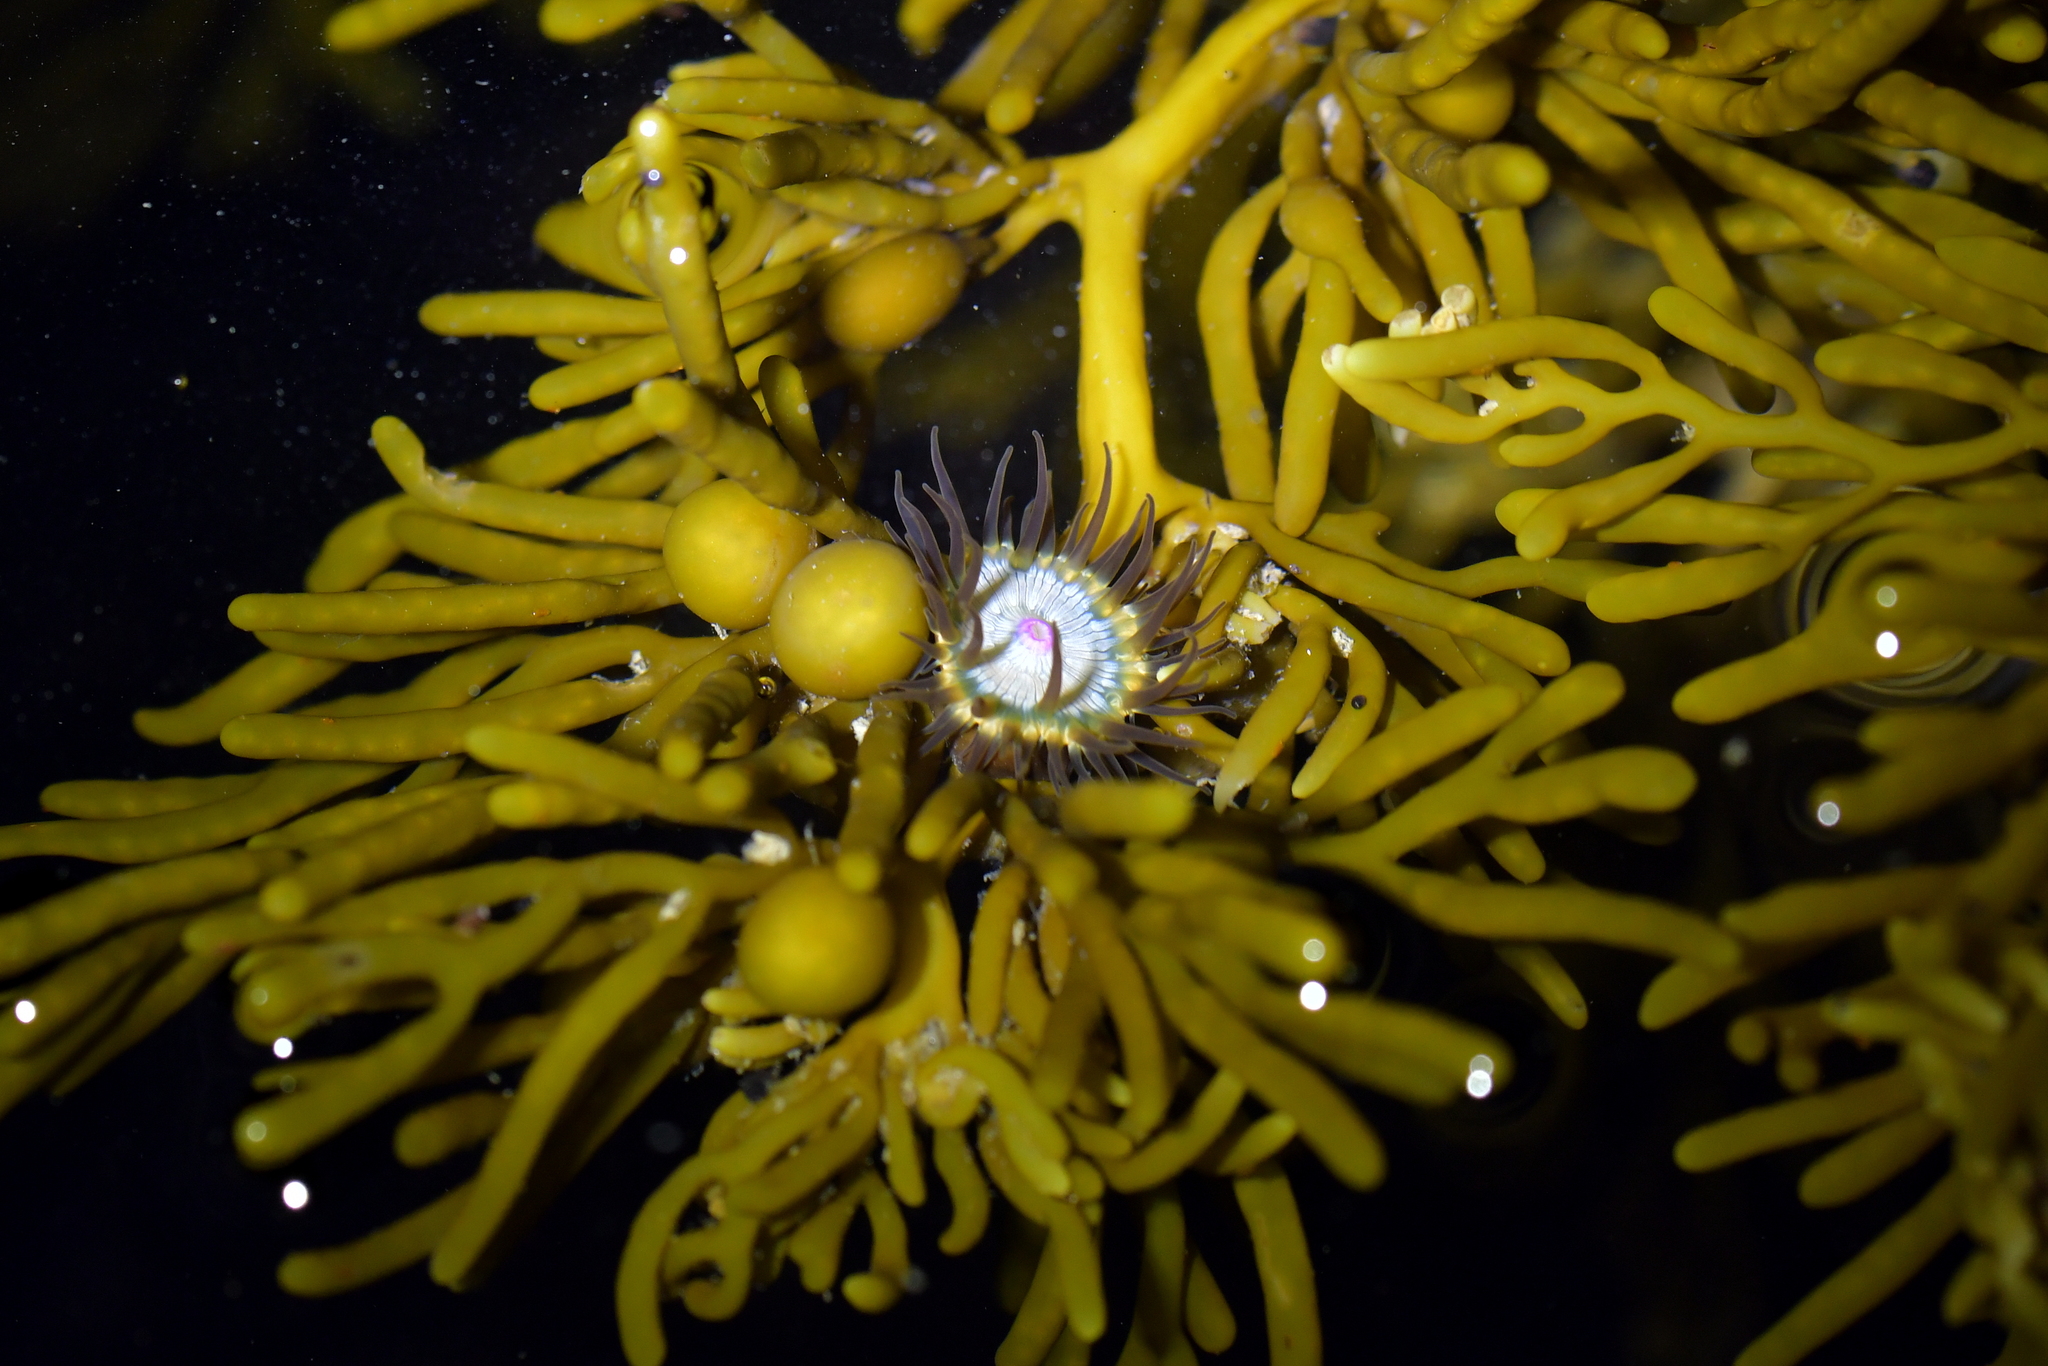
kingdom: Animalia
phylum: Cnidaria
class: Anthozoa
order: Actiniaria
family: Hormathiidae
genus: Handactis
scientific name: Handactis nutrix
